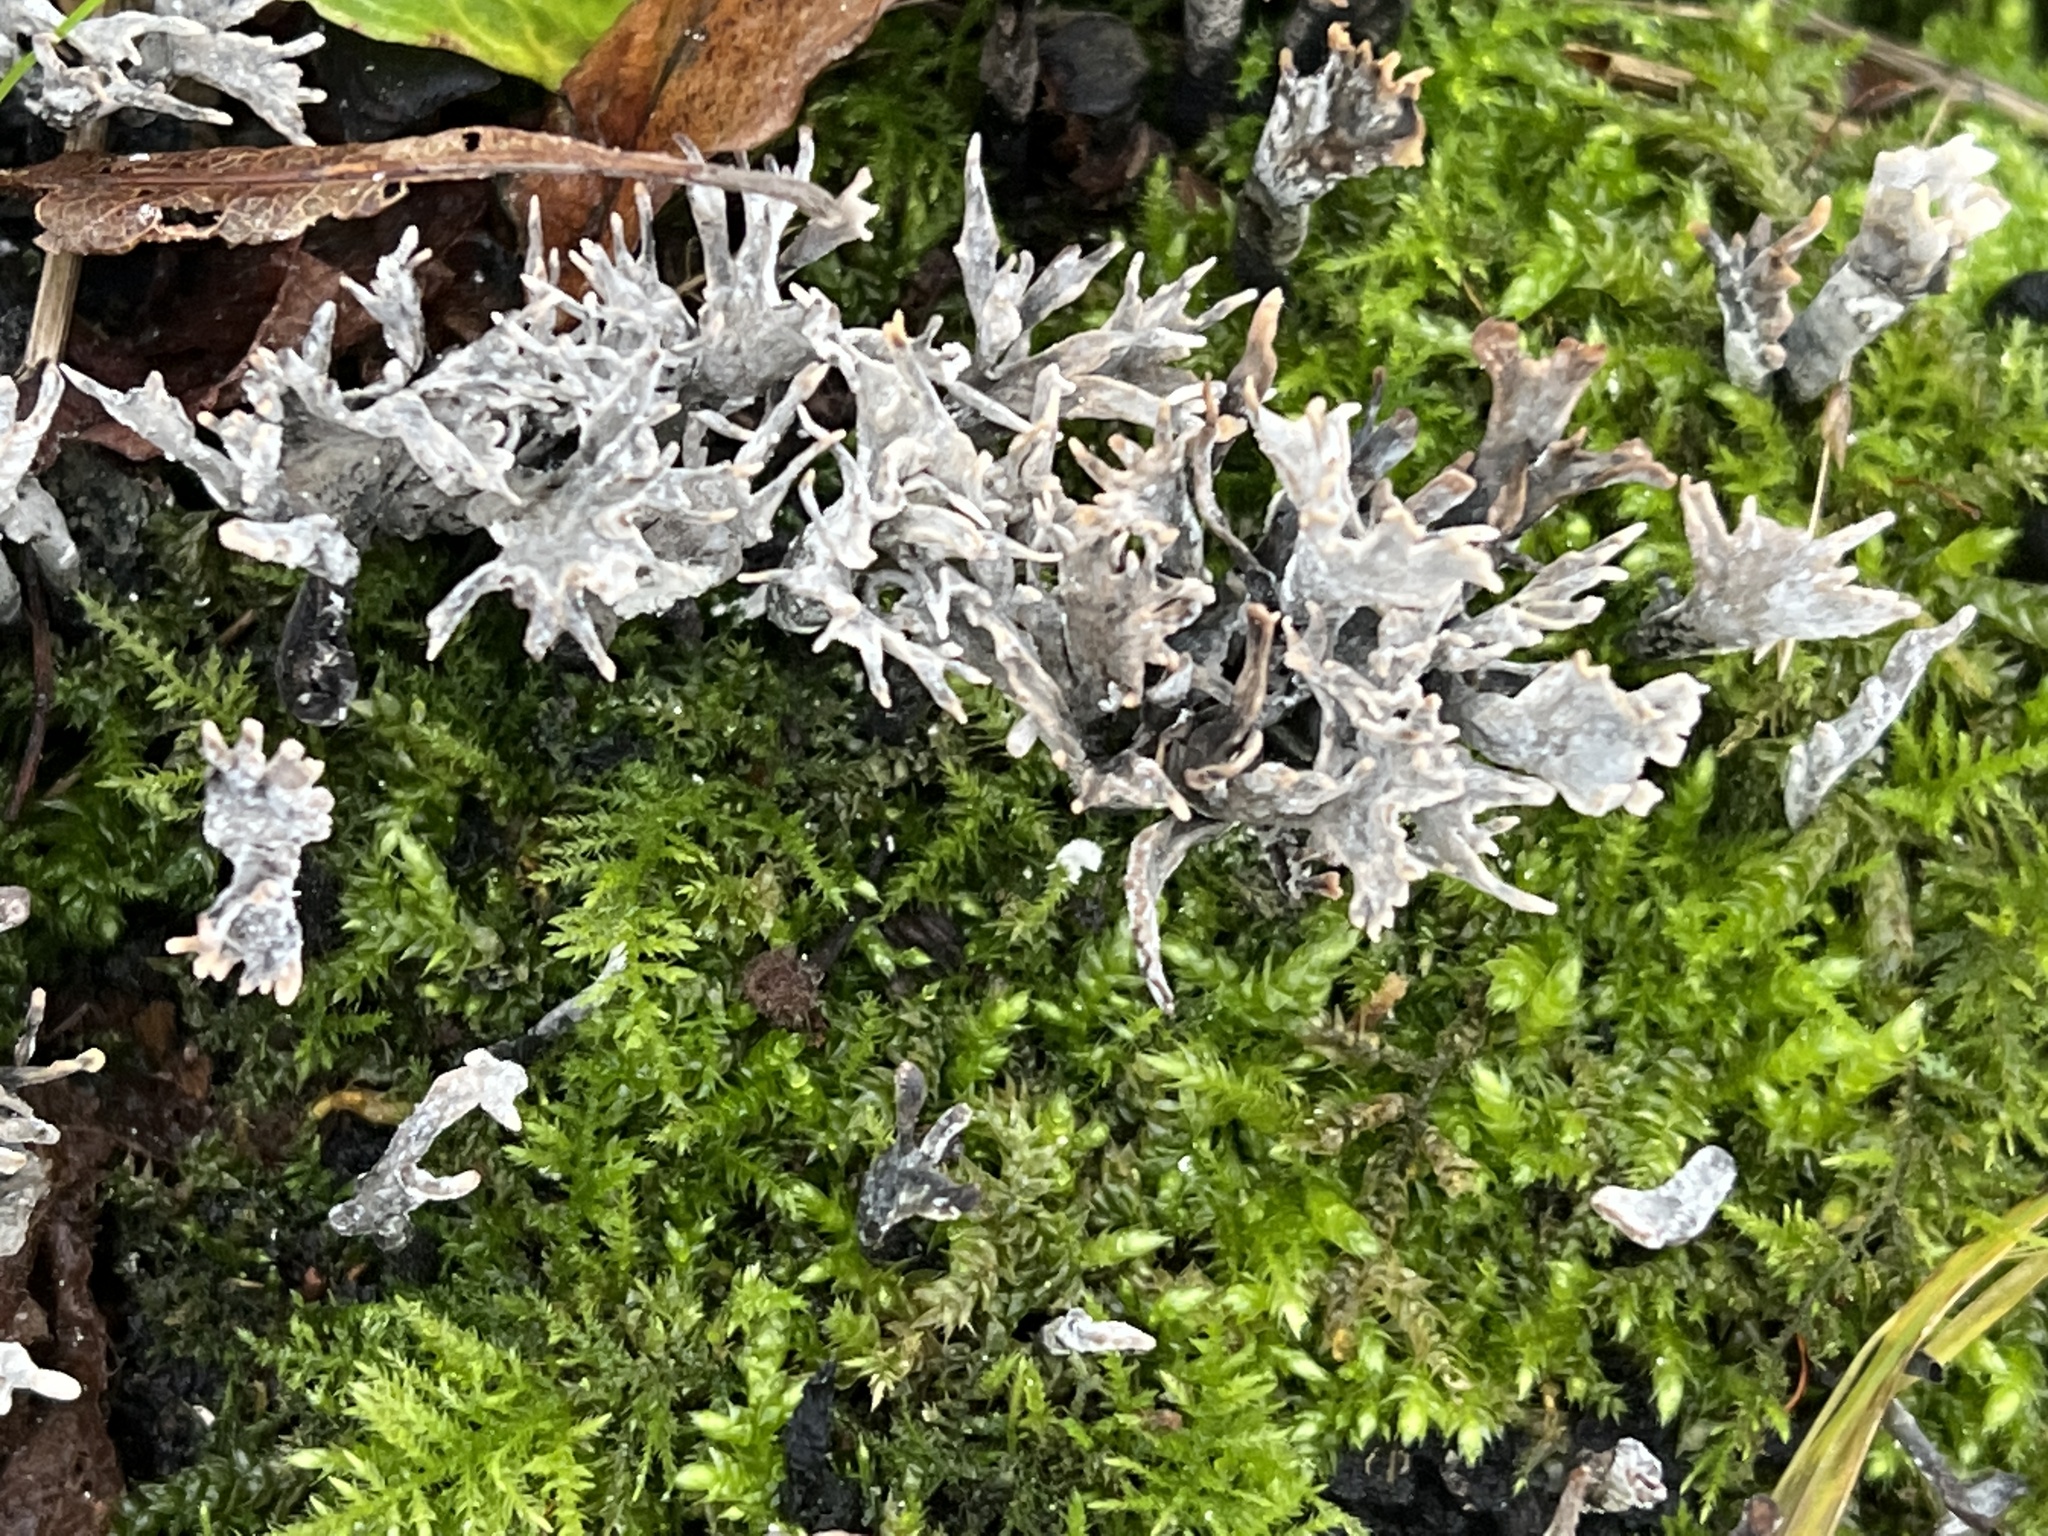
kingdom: Fungi
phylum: Ascomycota
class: Sordariomycetes
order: Xylariales
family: Xylariaceae
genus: Xylaria
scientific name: Xylaria hypoxylon
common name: Candle-snuff fungus
